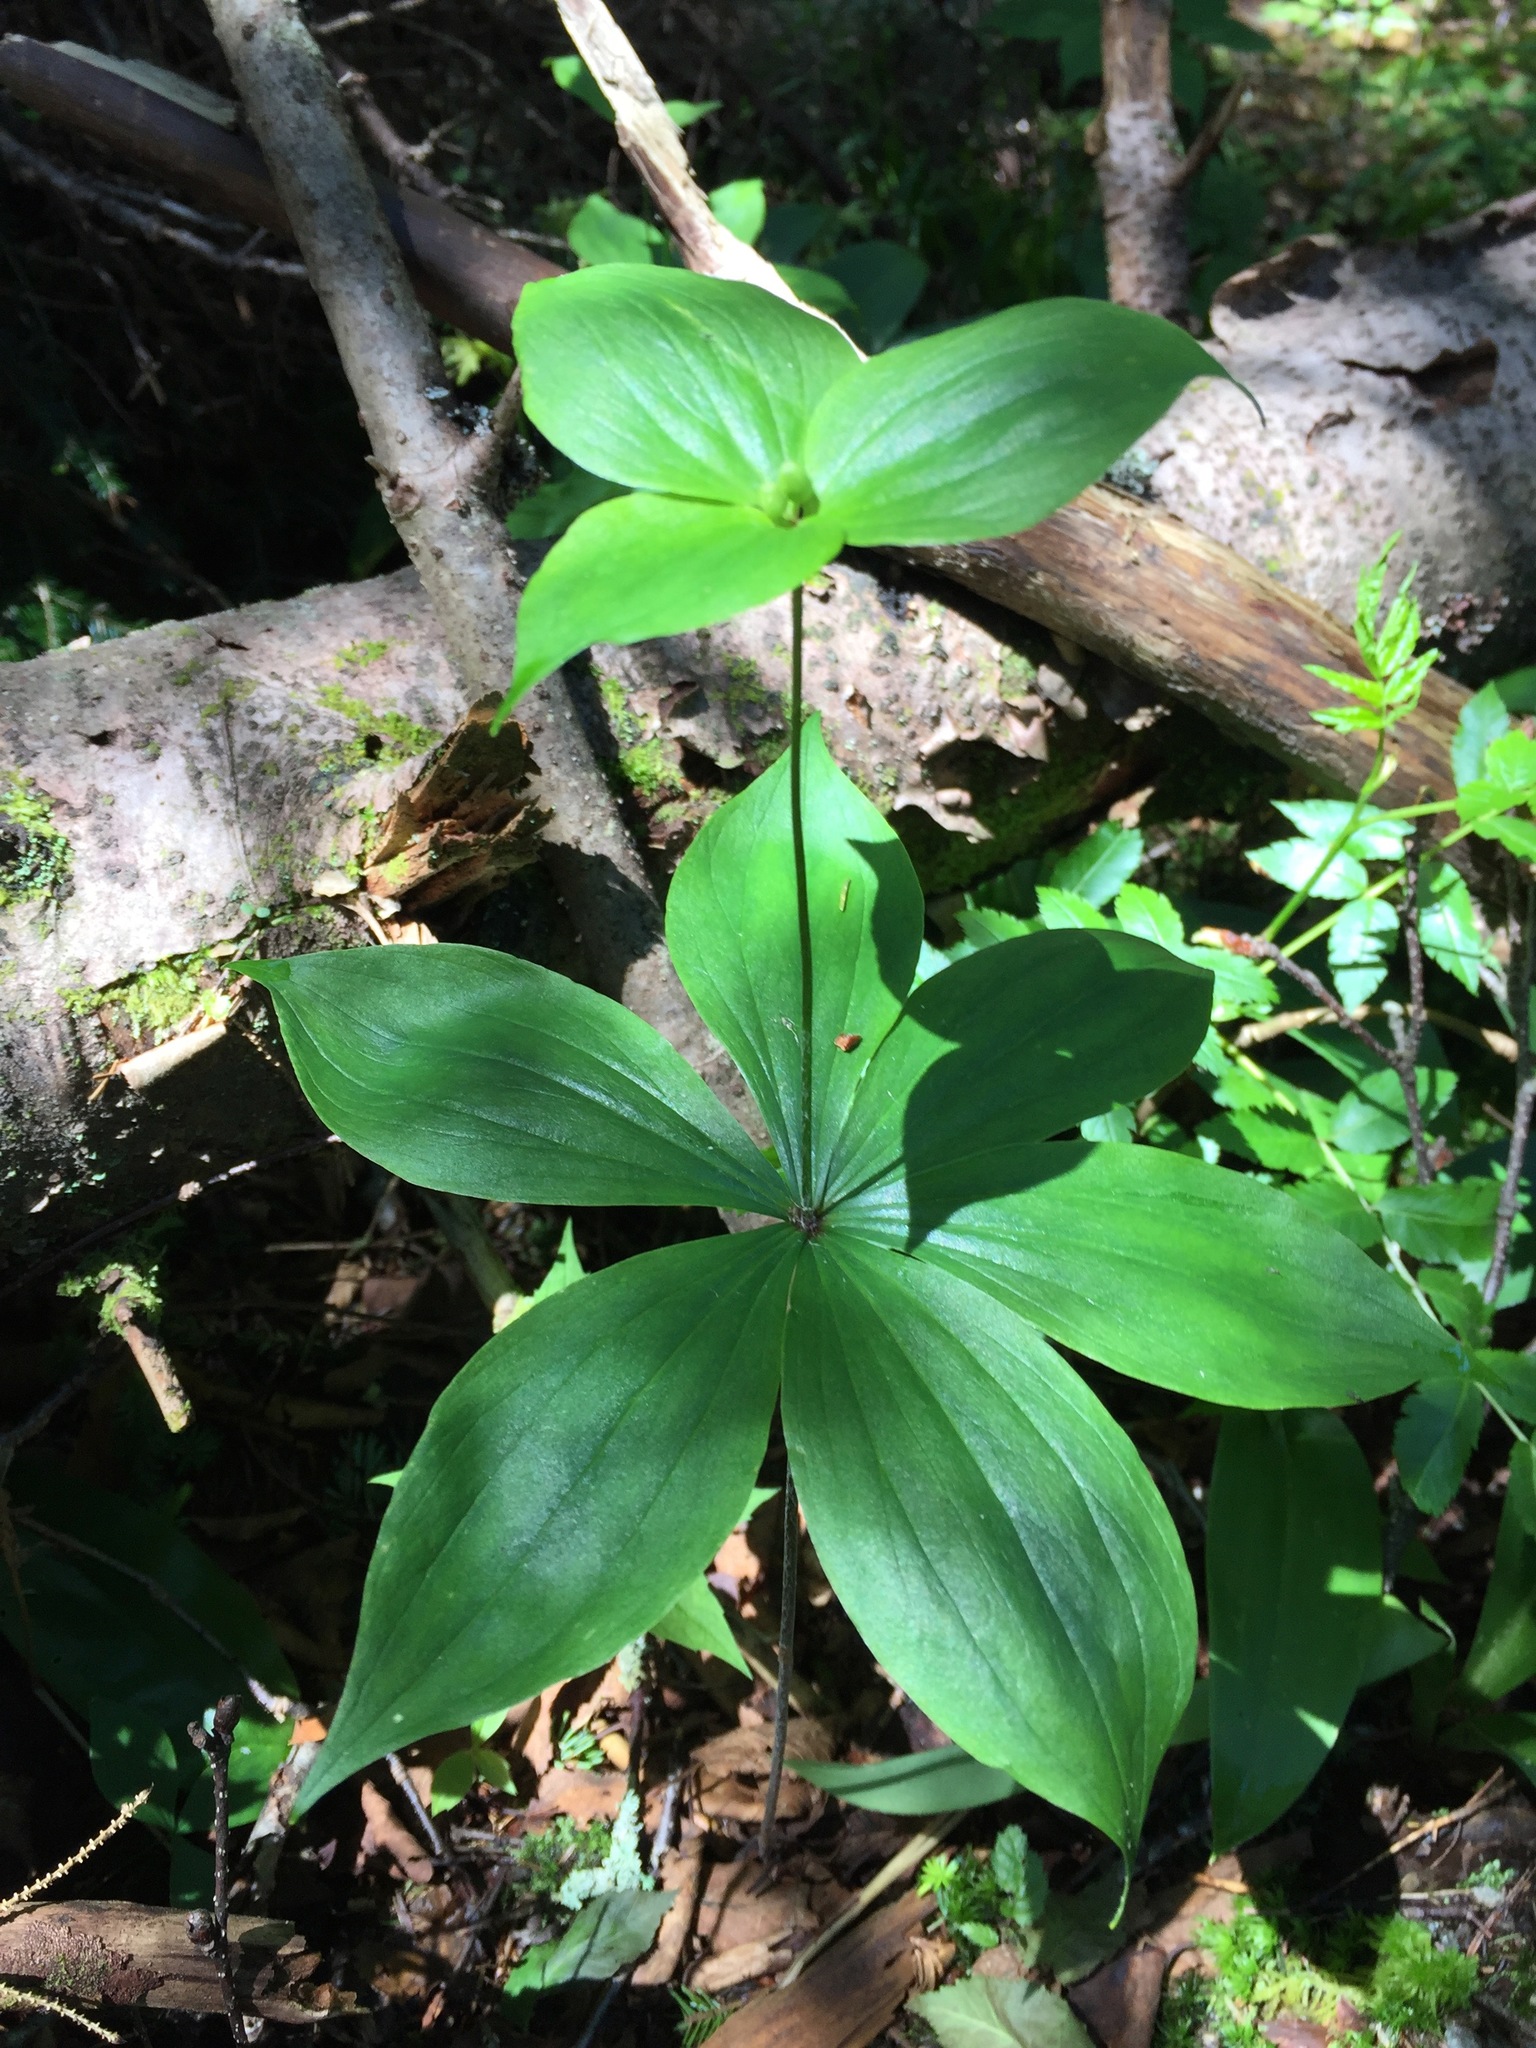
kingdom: Plantae
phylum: Tracheophyta
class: Liliopsida
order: Liliales
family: Liliaceae
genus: Medeola
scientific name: Medeola virginiana
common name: Indian cucumber-root
